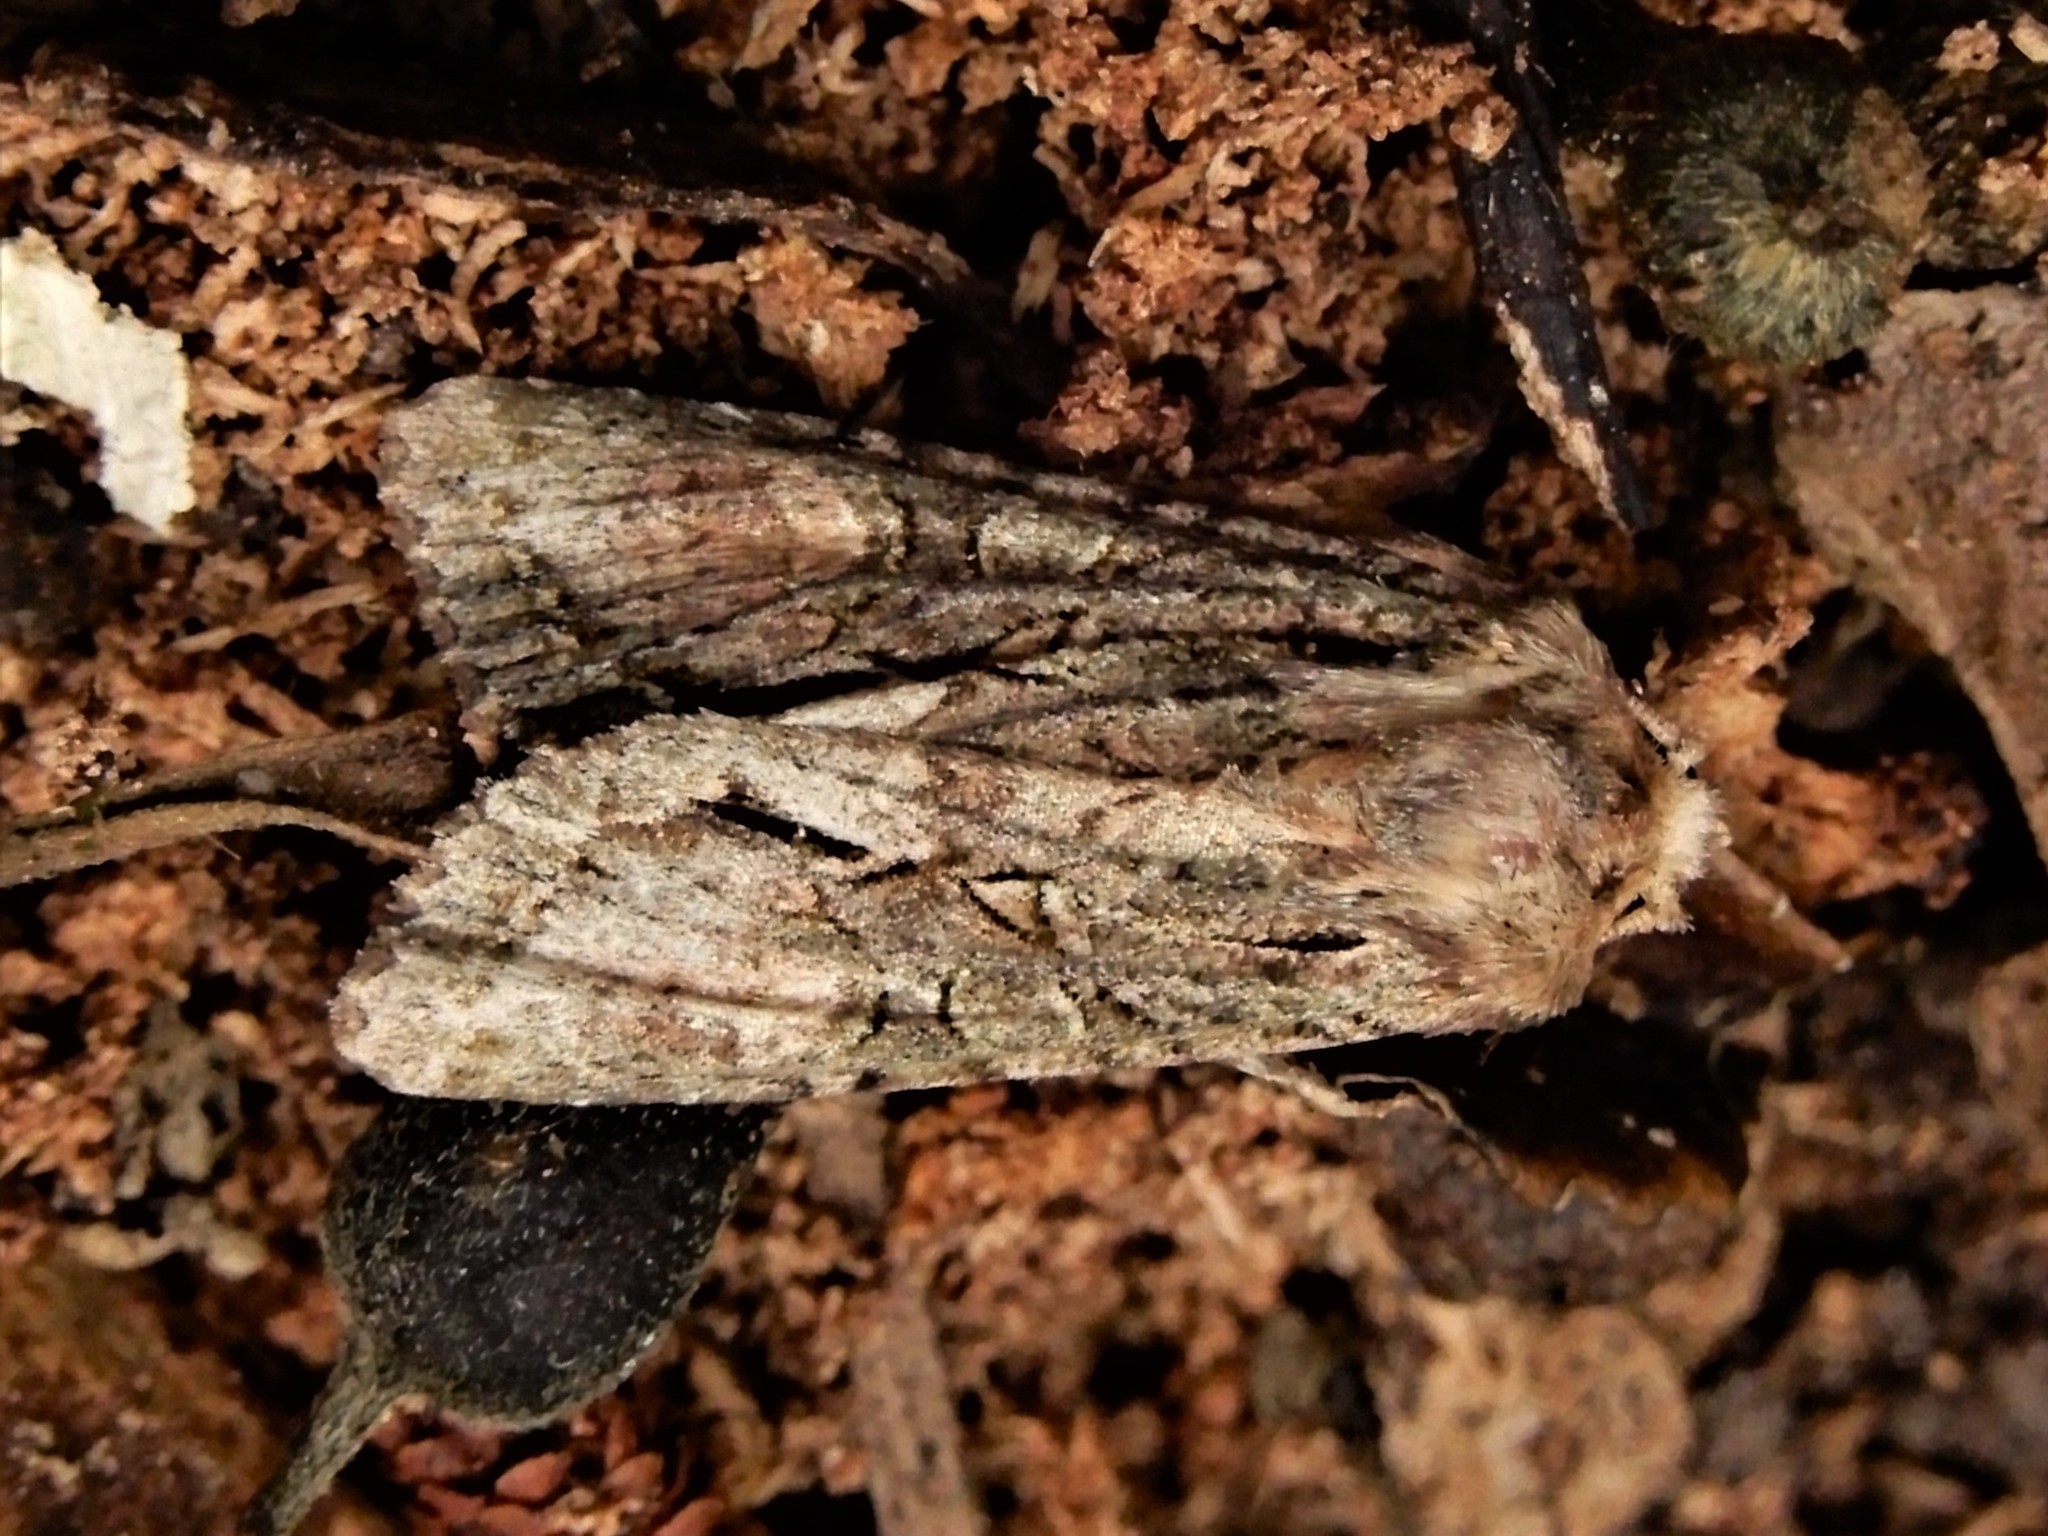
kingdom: Animalia
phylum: Arthropoda
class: Insecta
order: Lepidoptera
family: Noctuidae
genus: Ichneutica
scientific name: Ichneutica mutans
